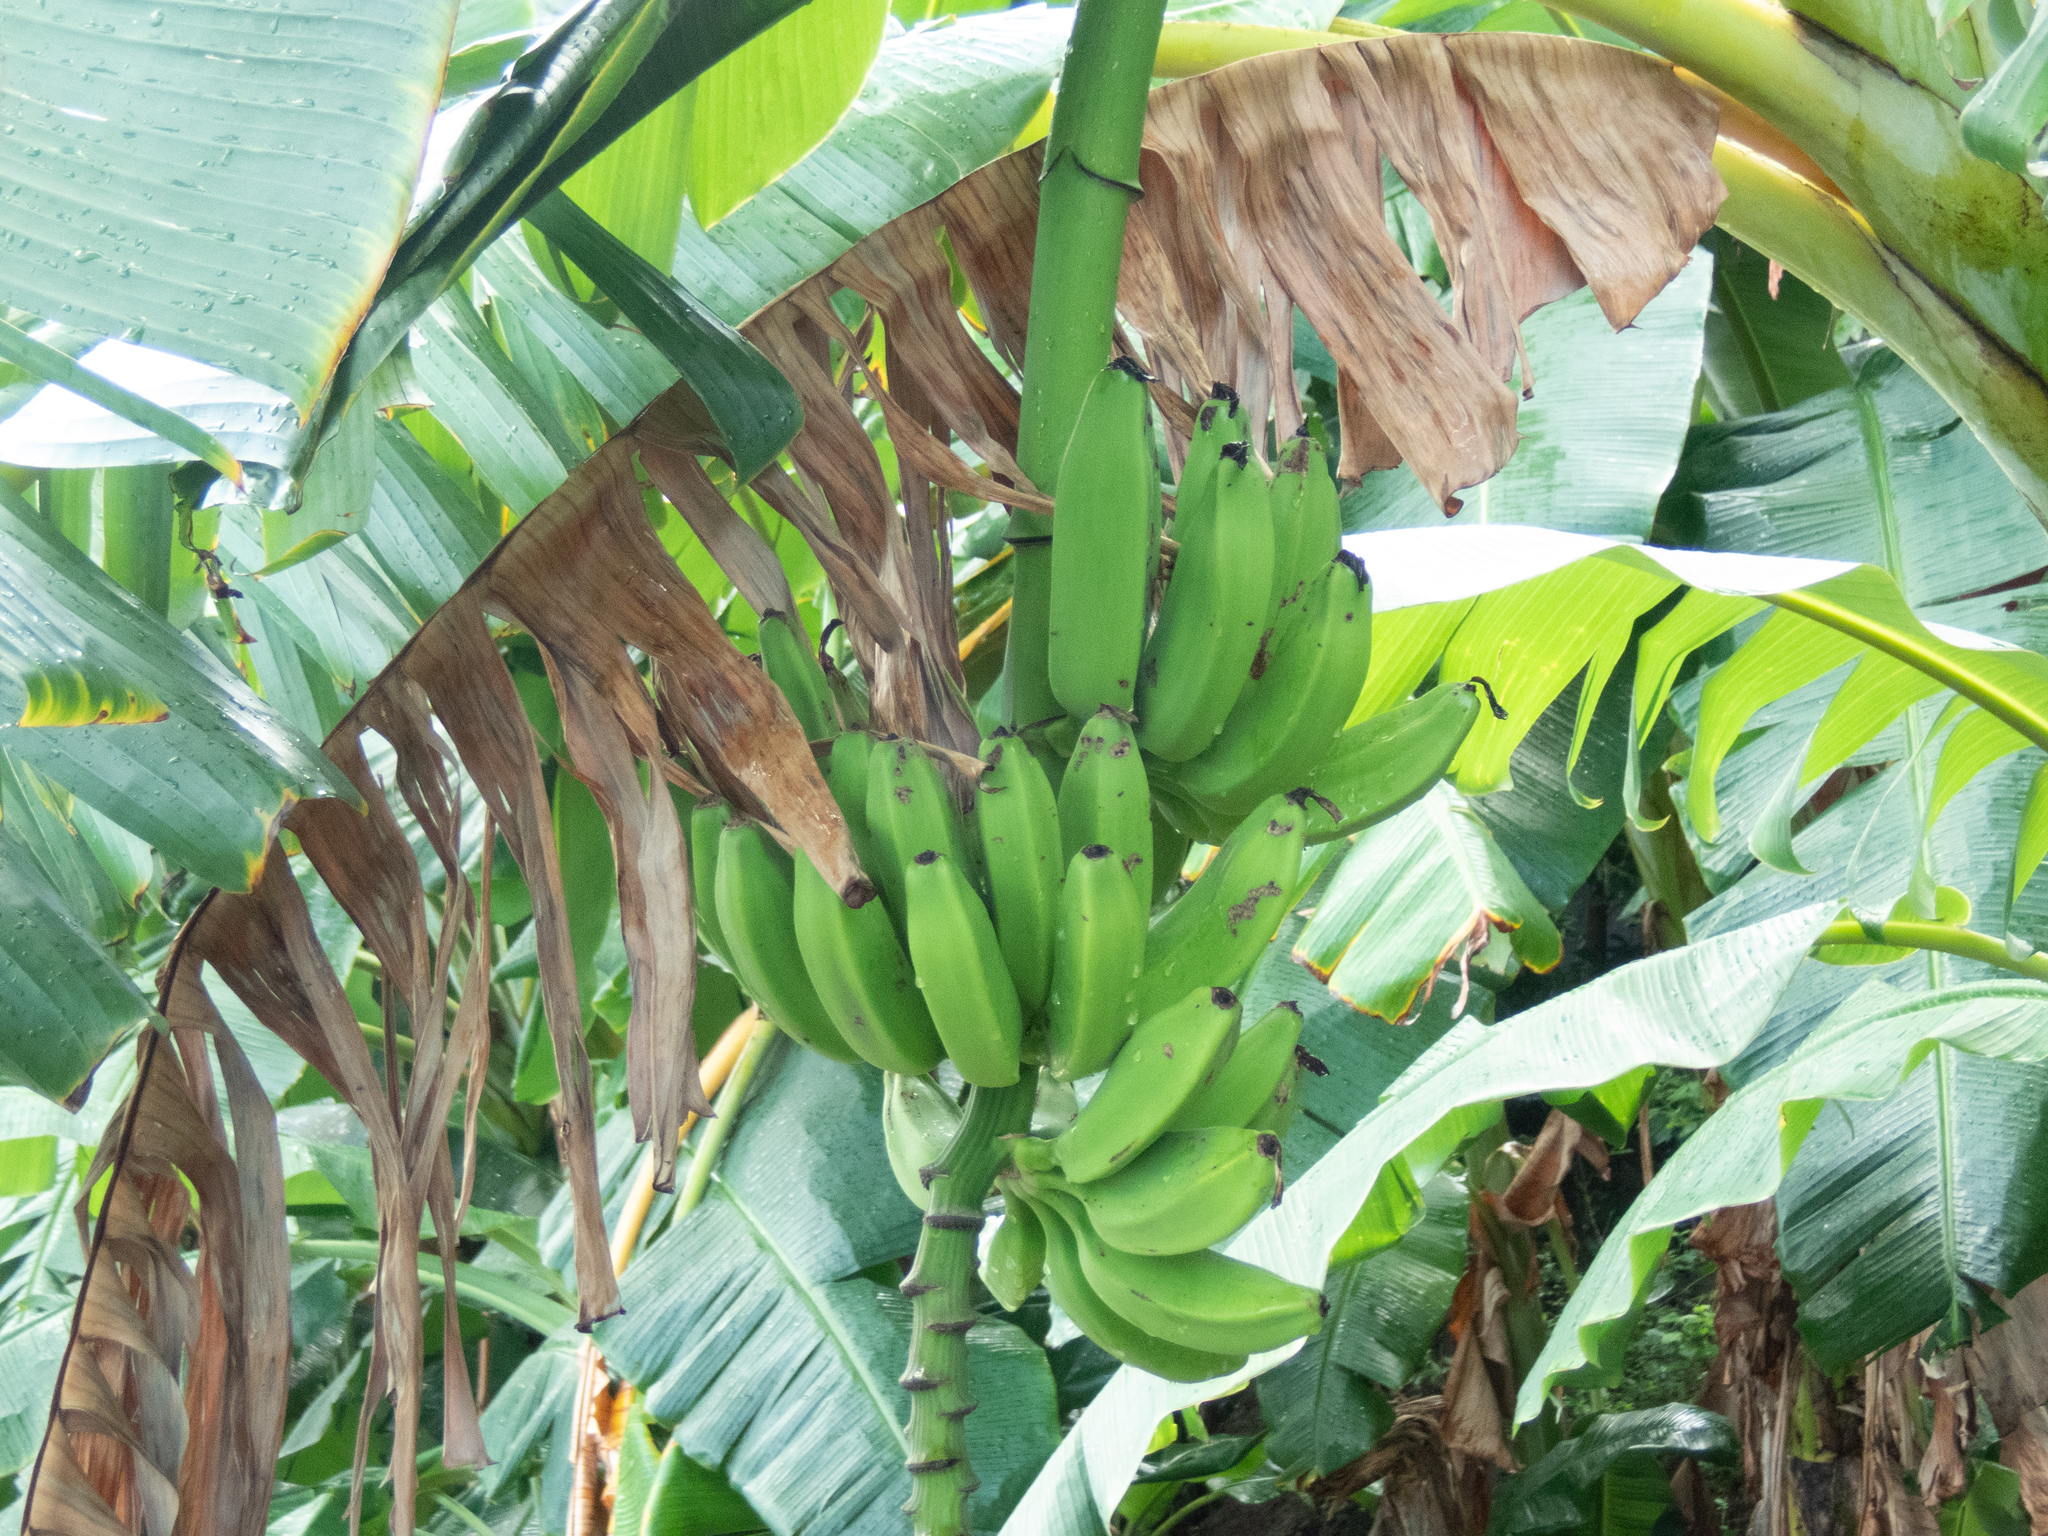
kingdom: Plantae
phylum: Tracheophyta
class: Liliopsida
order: Zingiberales
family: Musaceae
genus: Musa
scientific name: Musa paradisiaca
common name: French plantain
